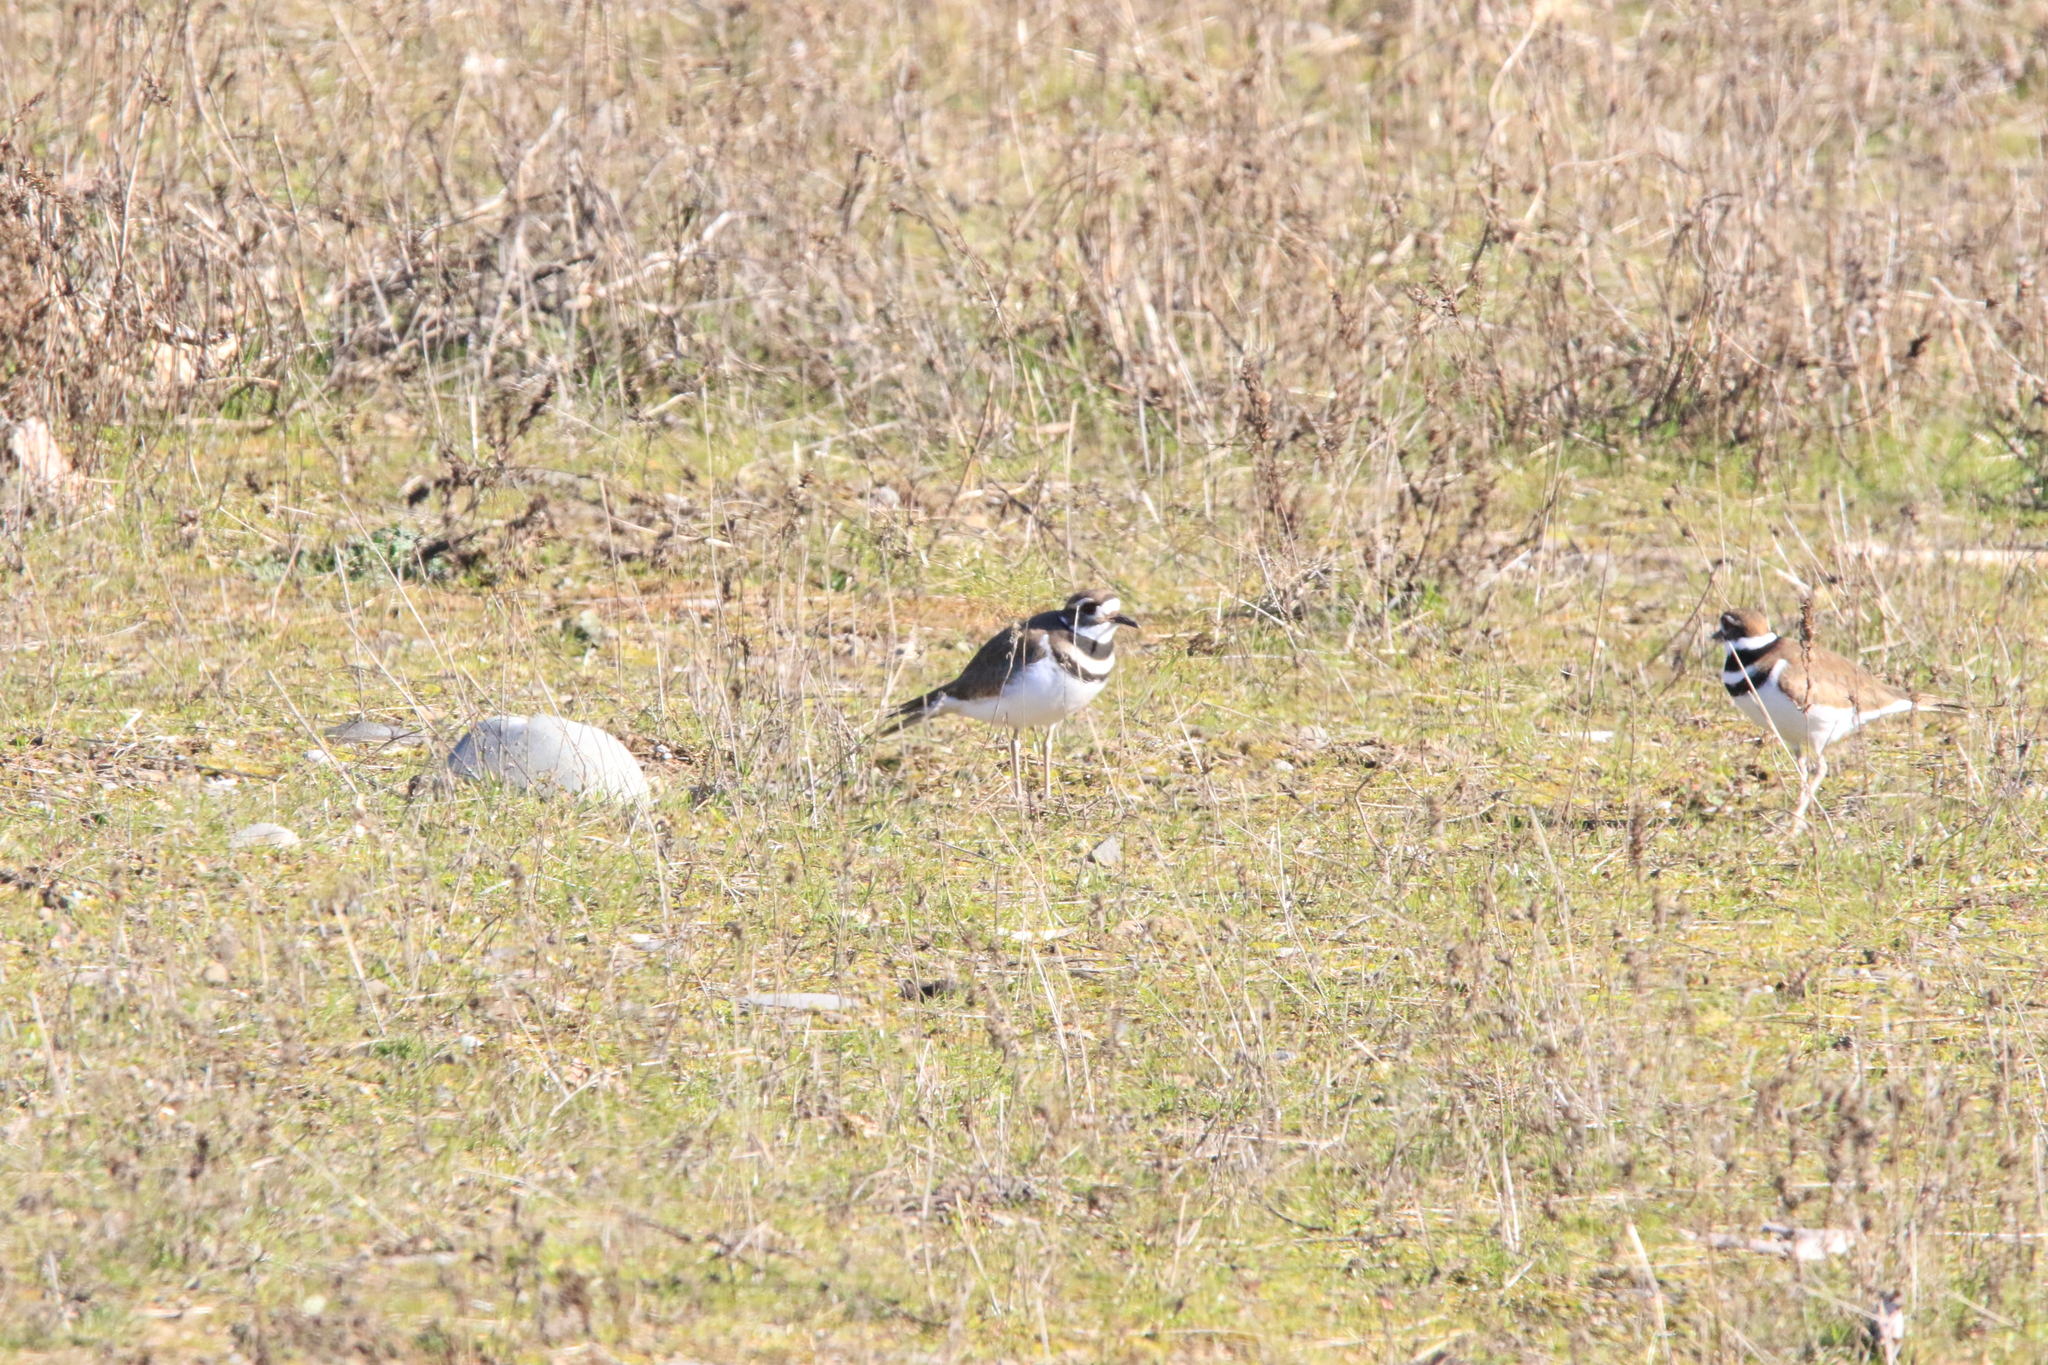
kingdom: Animalia
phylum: Chordata
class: Aves
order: Charadriiformes
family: Charadriidae
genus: Charadrius
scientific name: Charadrius vociferus
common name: Killdeer
